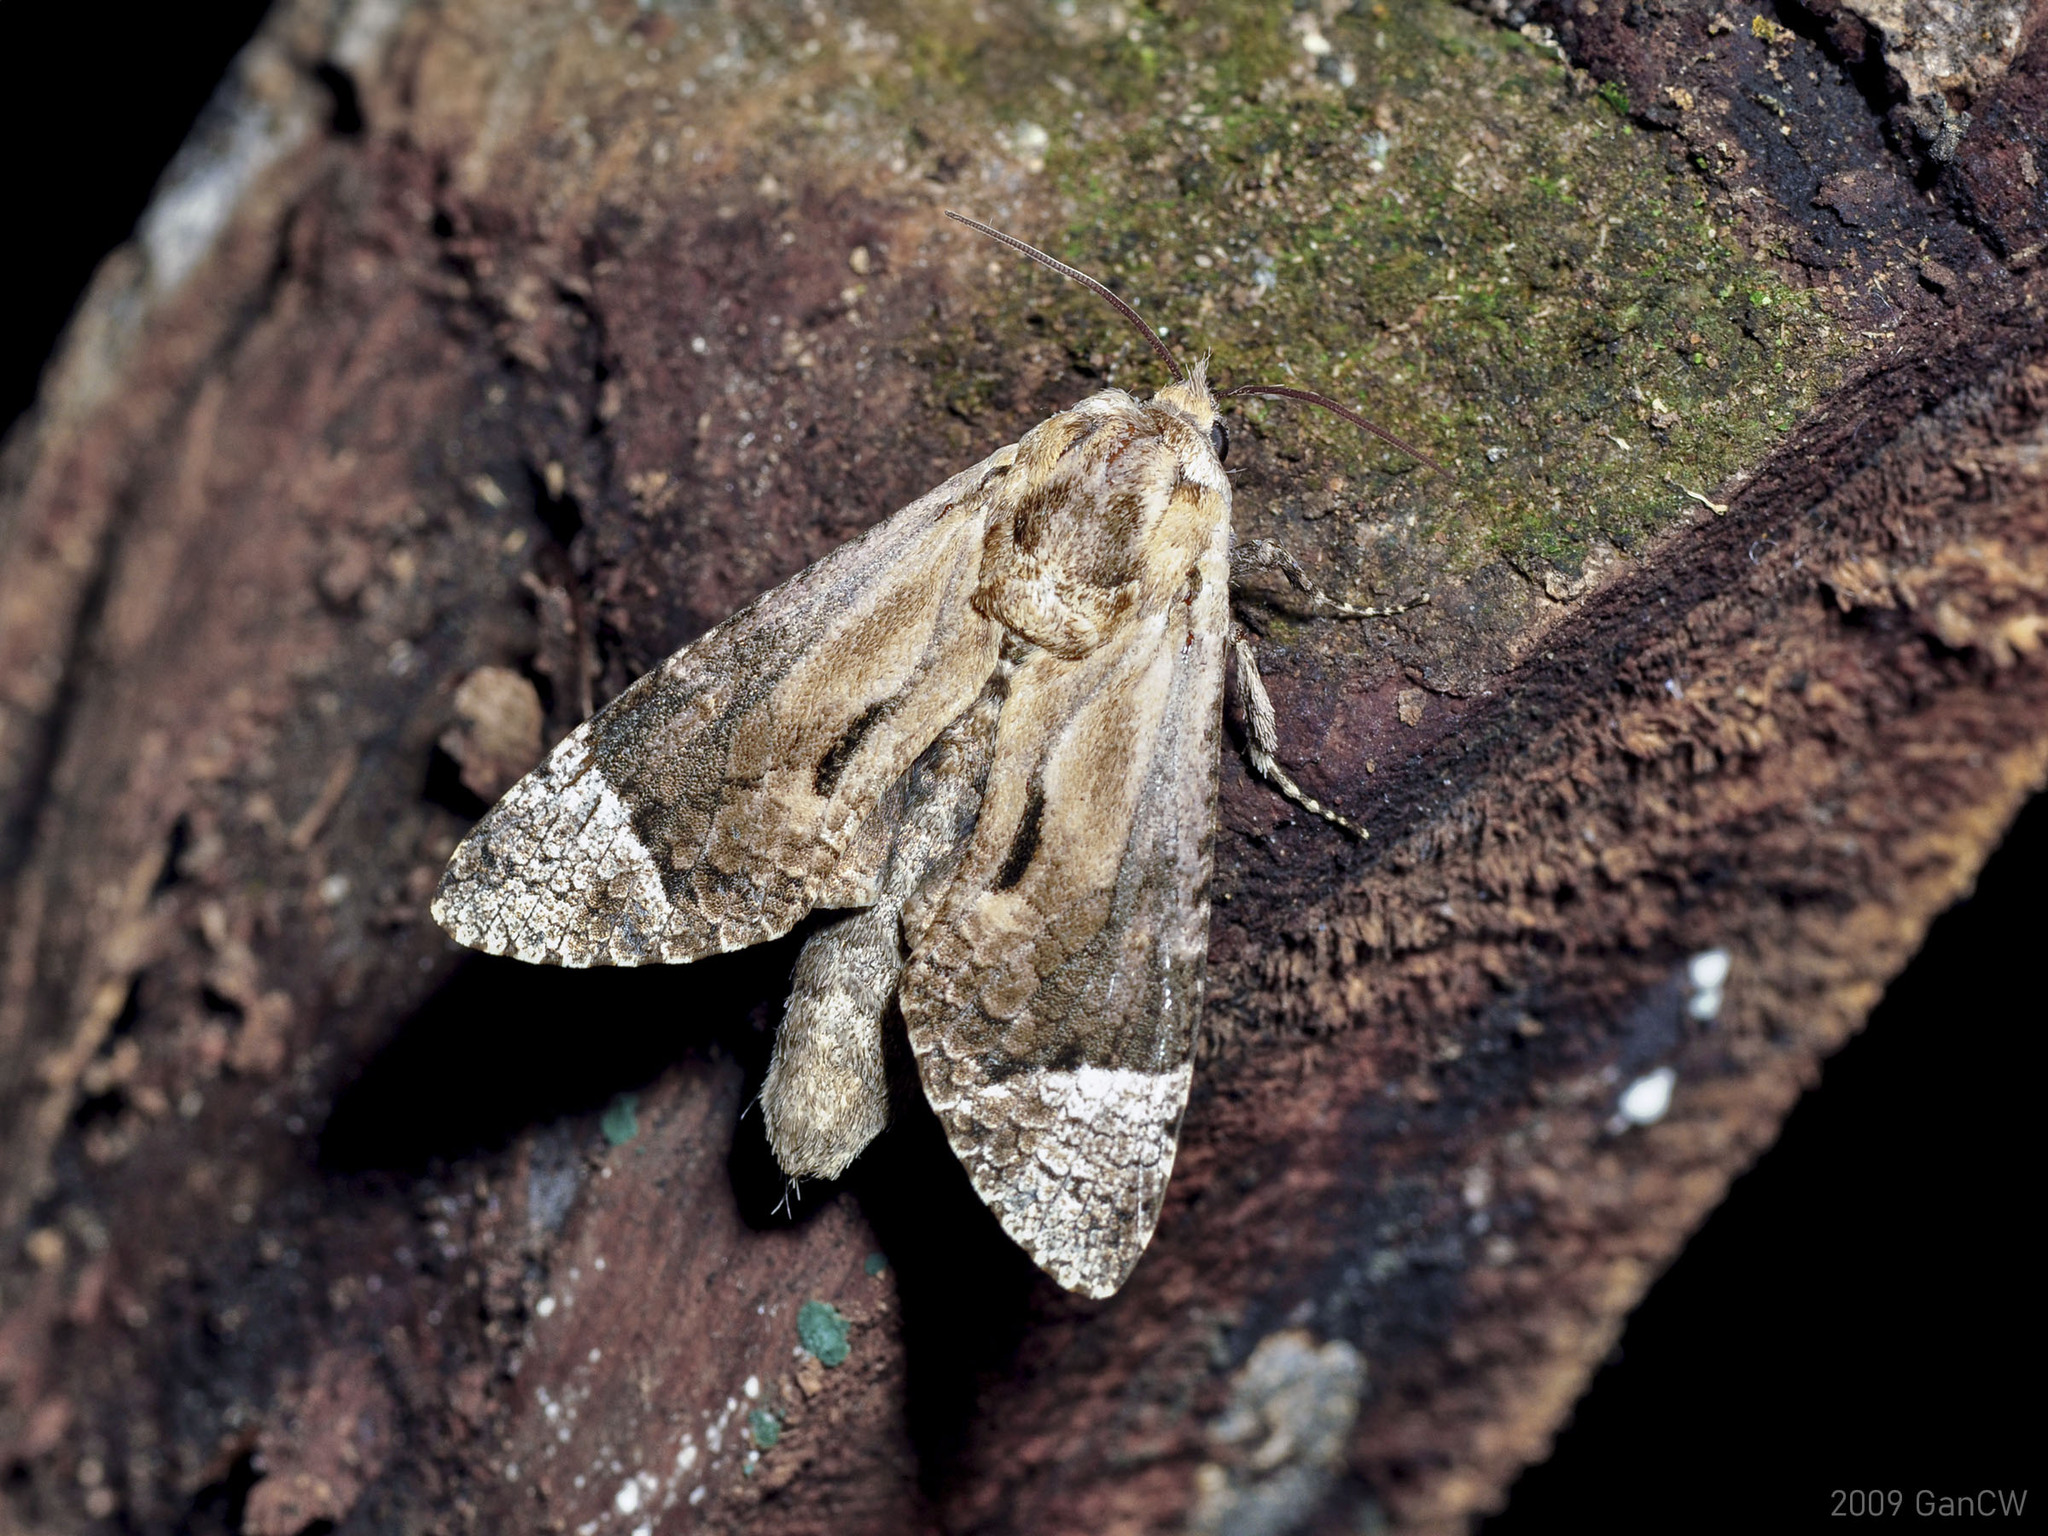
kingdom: Animalia
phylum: Arthropoda
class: Insecta
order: Lepidoptera
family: Cossidae
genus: Groenendaelia
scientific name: Groenendaelia kinabaluensis
